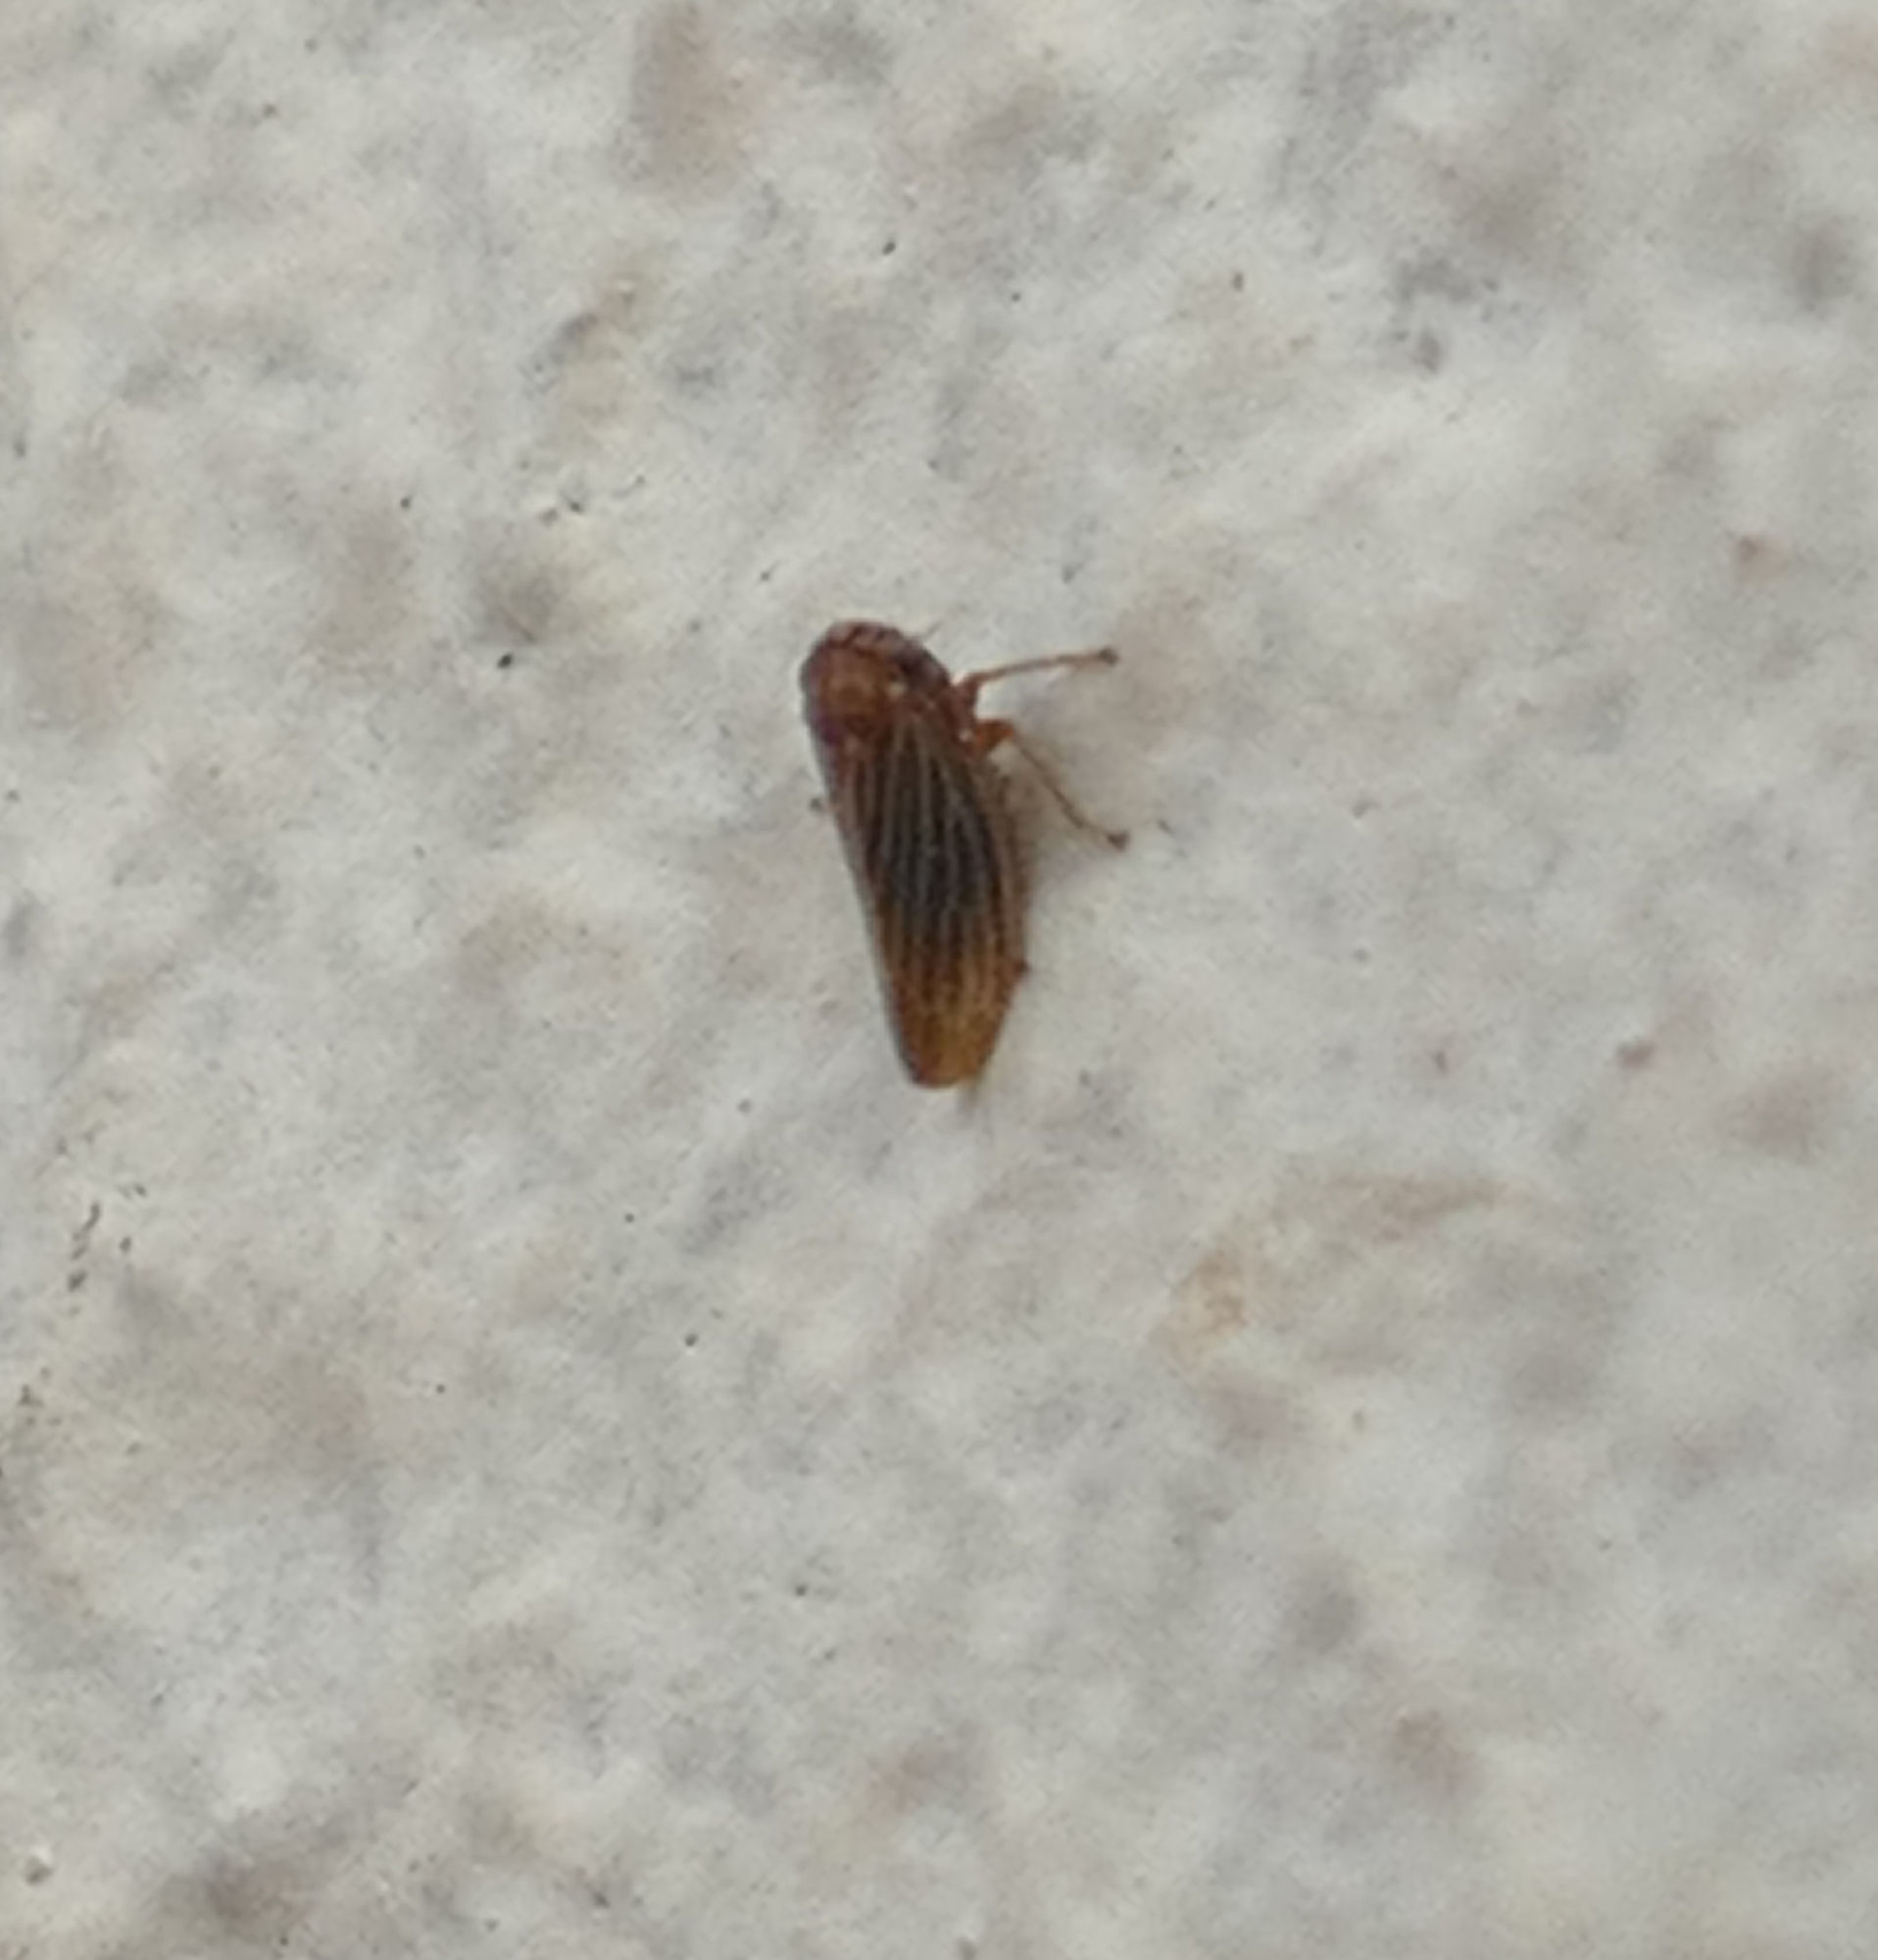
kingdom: Animalia
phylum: Arthropoda
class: Insecta
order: Hemiptera
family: Cicadellidae
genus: Agallia
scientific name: Agallia nielsoni
